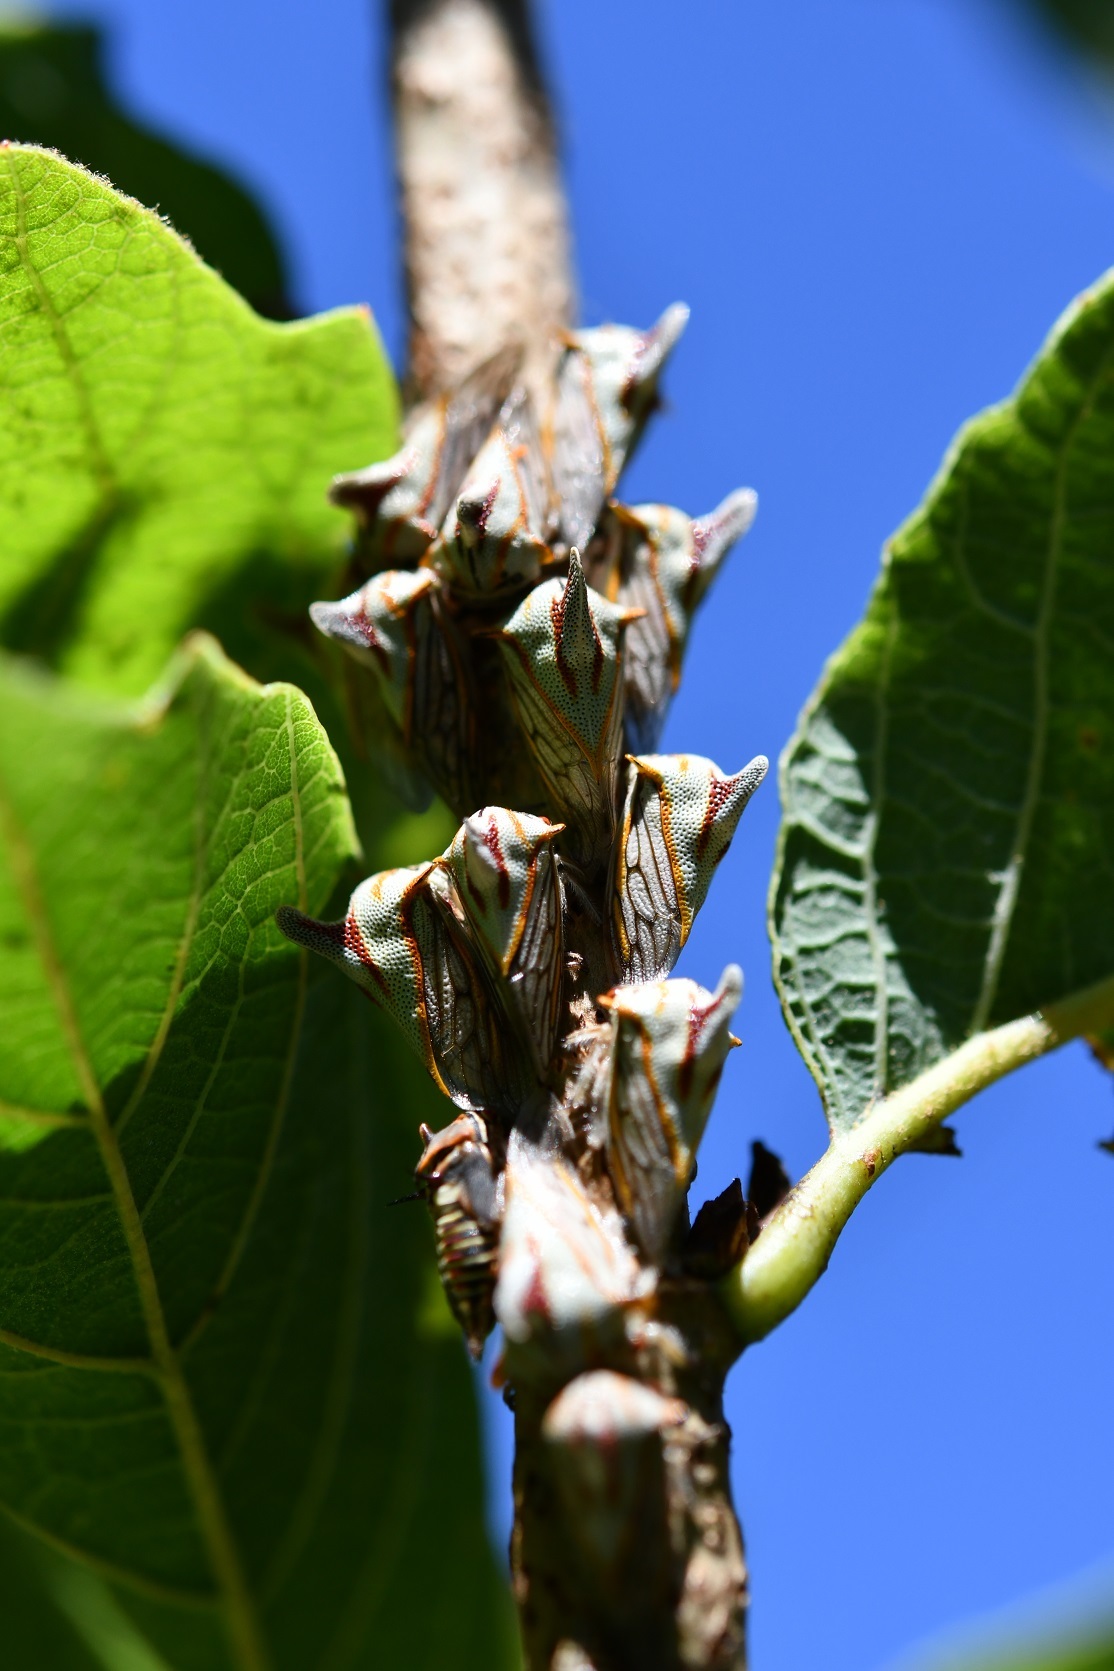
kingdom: Animalia
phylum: Arthropoda
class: Insecta
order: Hemiptera
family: Membracidae
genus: Platycotis
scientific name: Platycotis vittatus
